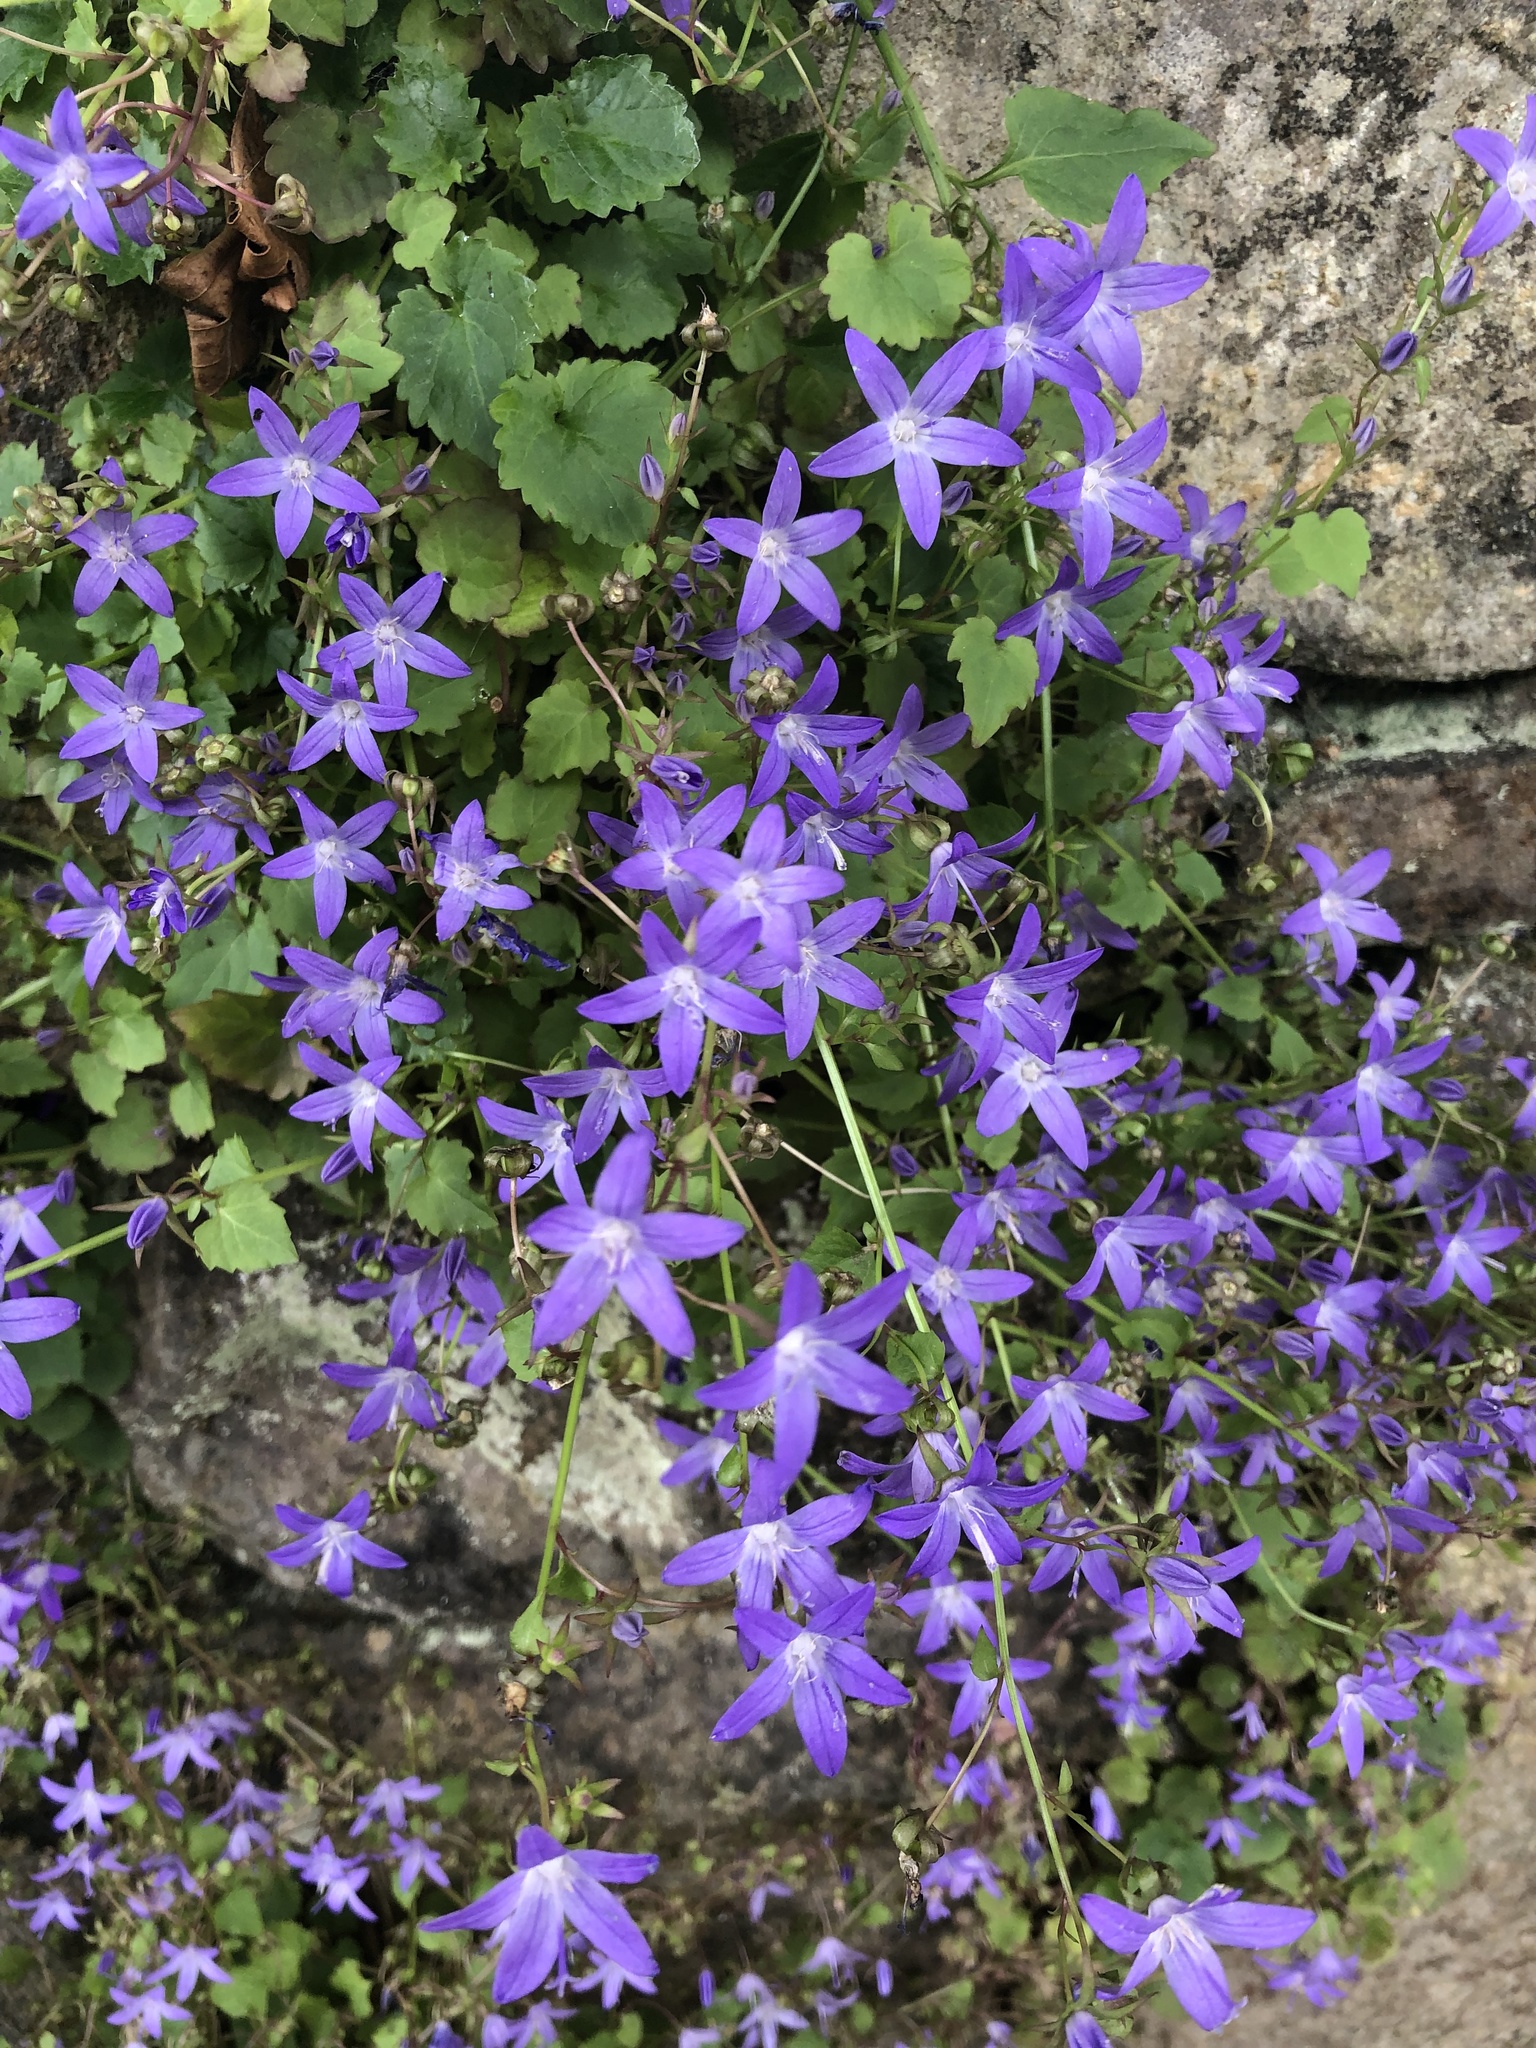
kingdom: Plantae
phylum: Tracheophyta
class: Magnoliopsida
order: Asterales
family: Campanulaceae
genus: Campanula
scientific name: Campanula poscharskyana
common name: Trailing bellflower
